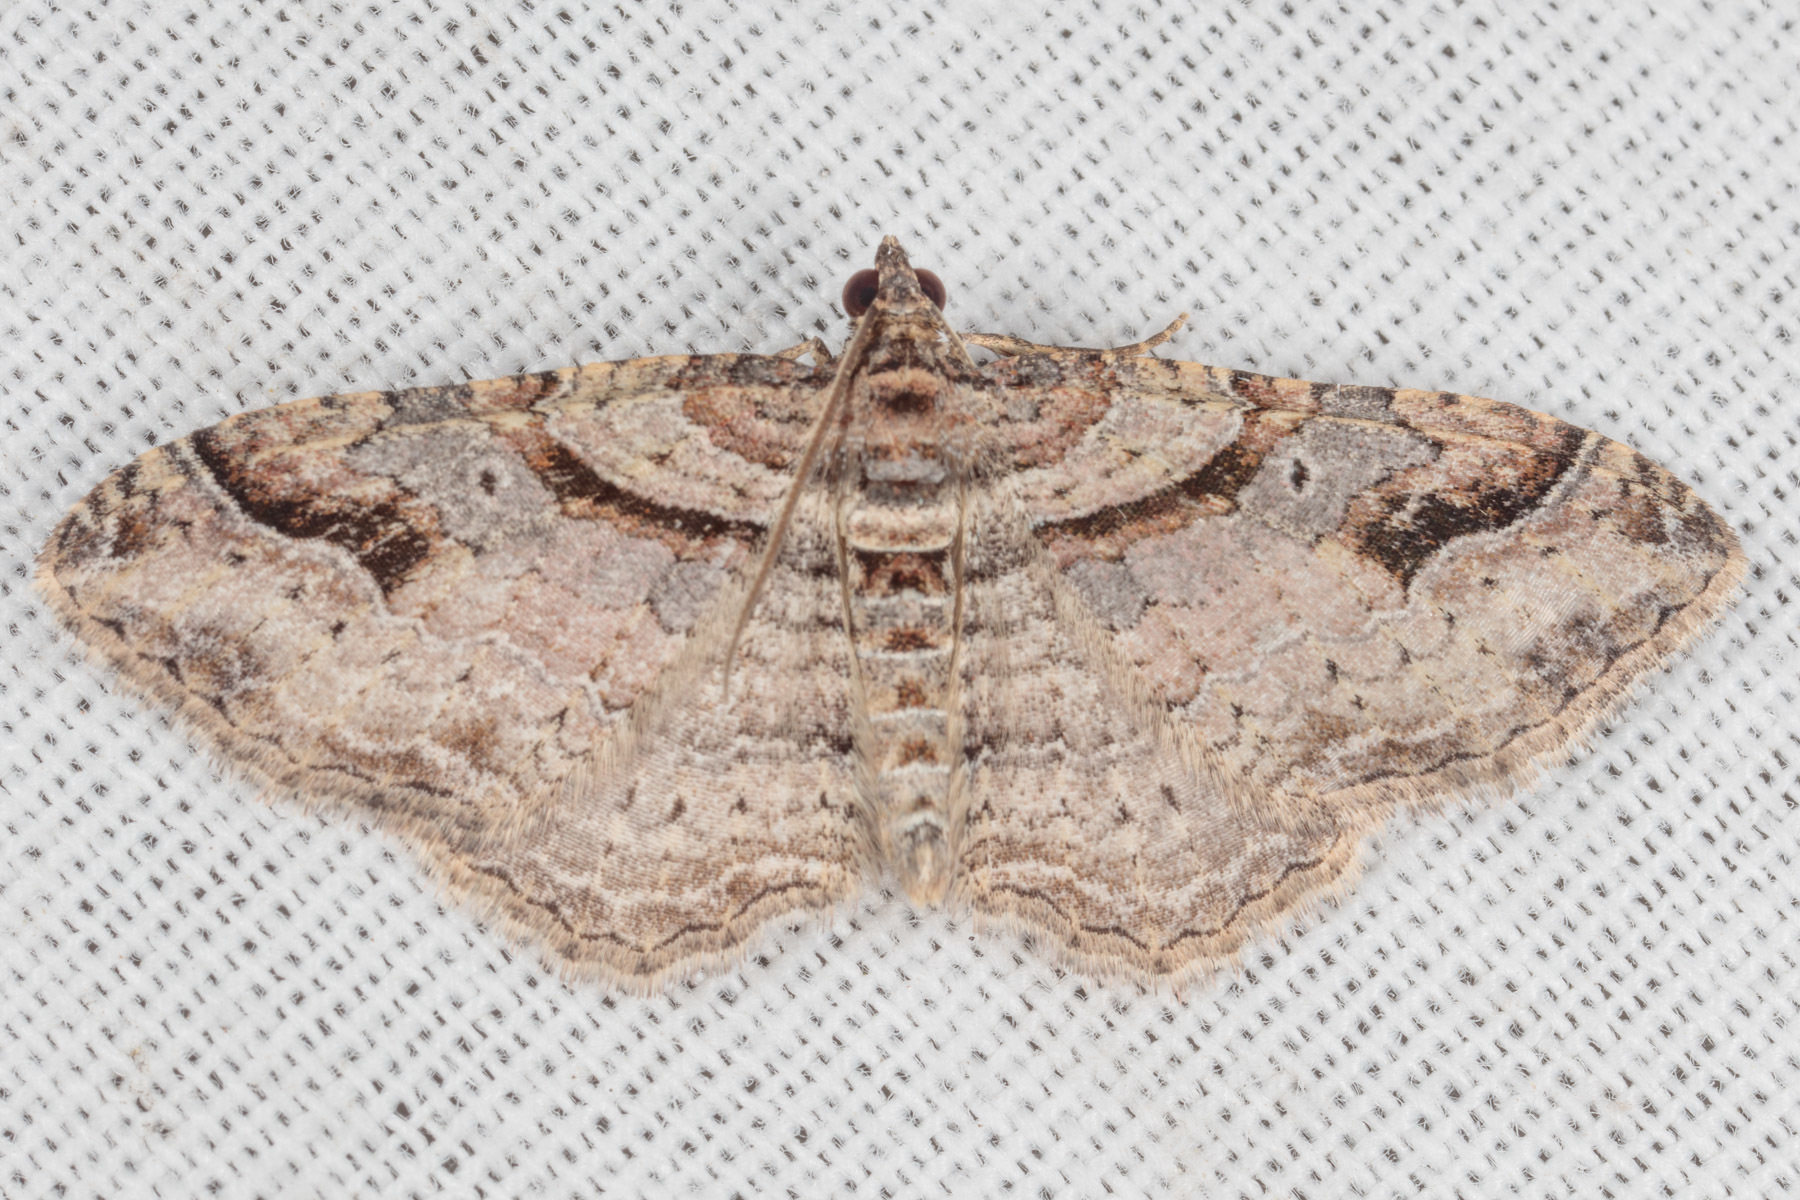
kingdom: Animalia
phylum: Arthropoda
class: Insecta
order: Lepidoptera
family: Geometridae
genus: Costaconvexa
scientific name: Costaconvexa centrostrigaria
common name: Bent-line carpet
